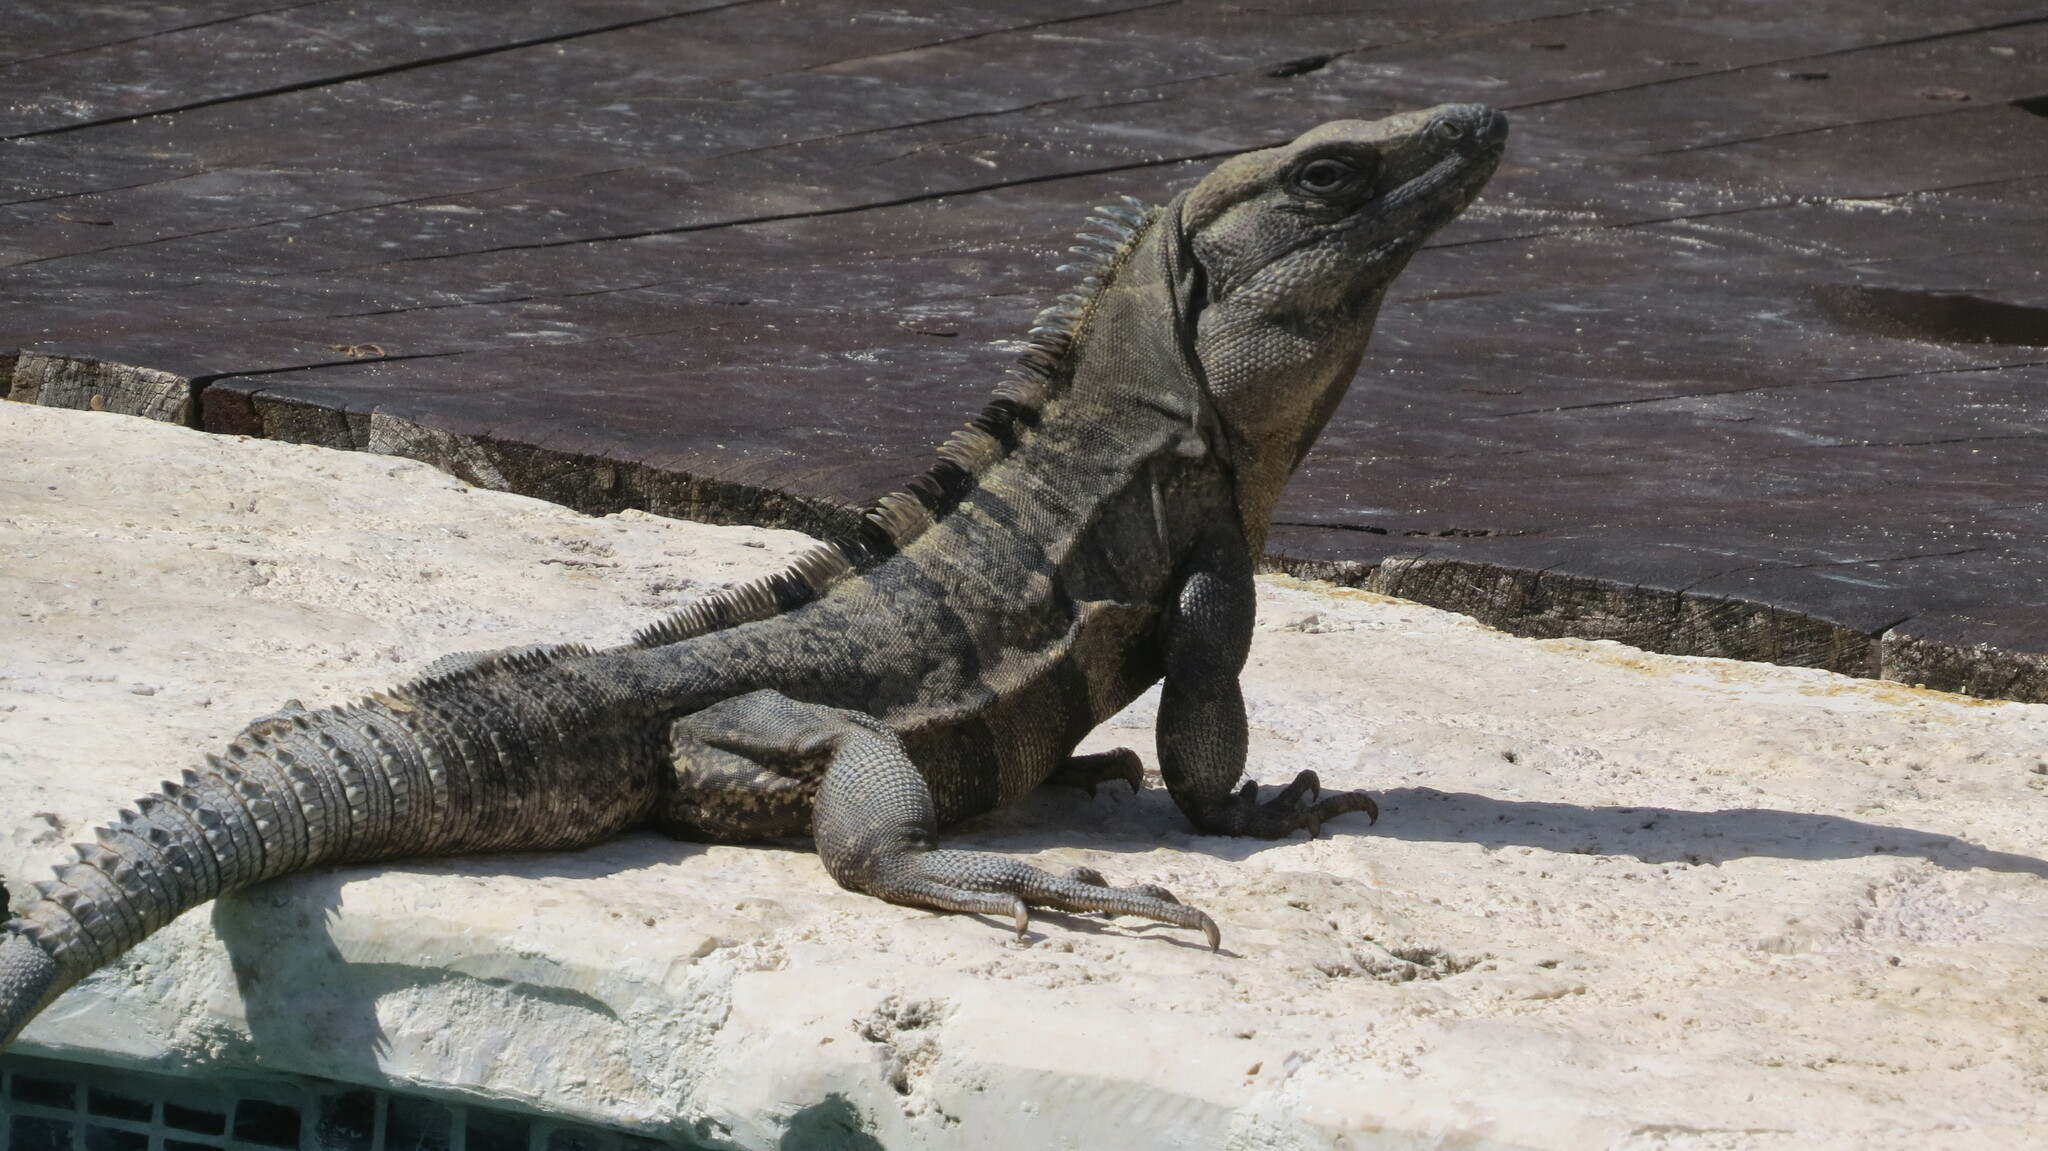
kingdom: Animalia
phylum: Chordata
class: Squamata
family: Iguanidae
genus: Ctenosaura
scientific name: Ctenosaura similis
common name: Black spiny-tailed iguana
